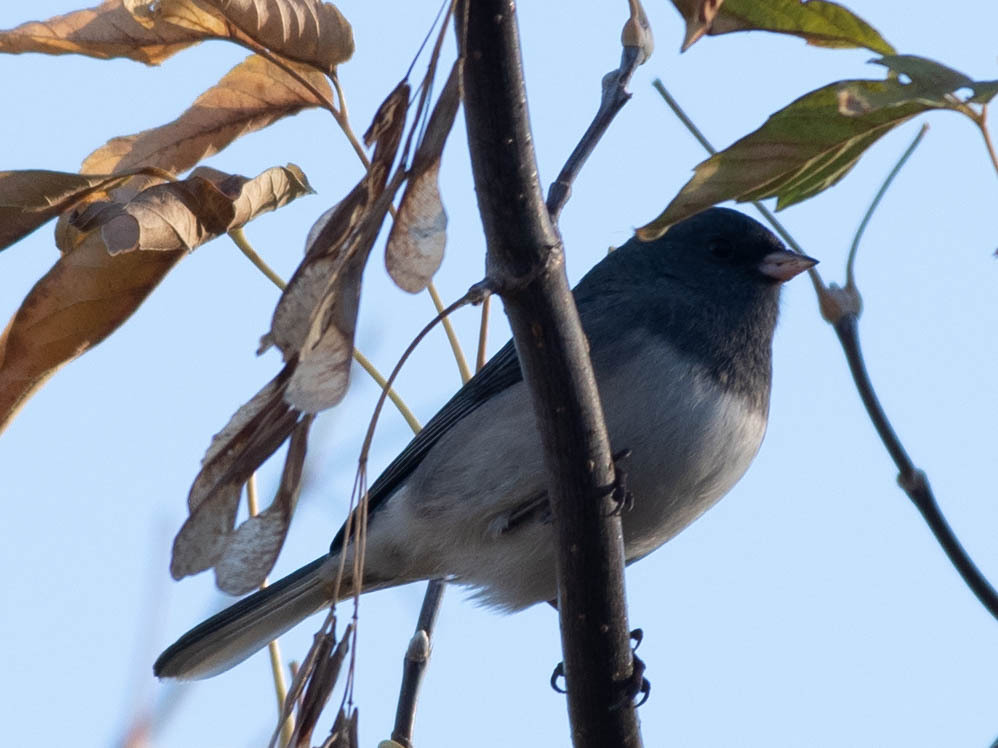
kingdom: Animalia
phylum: Chordata
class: Aves
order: Passeriformes
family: Passerellidae
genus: Junco
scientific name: Junco hyemalis
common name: Dark-eyed junco
